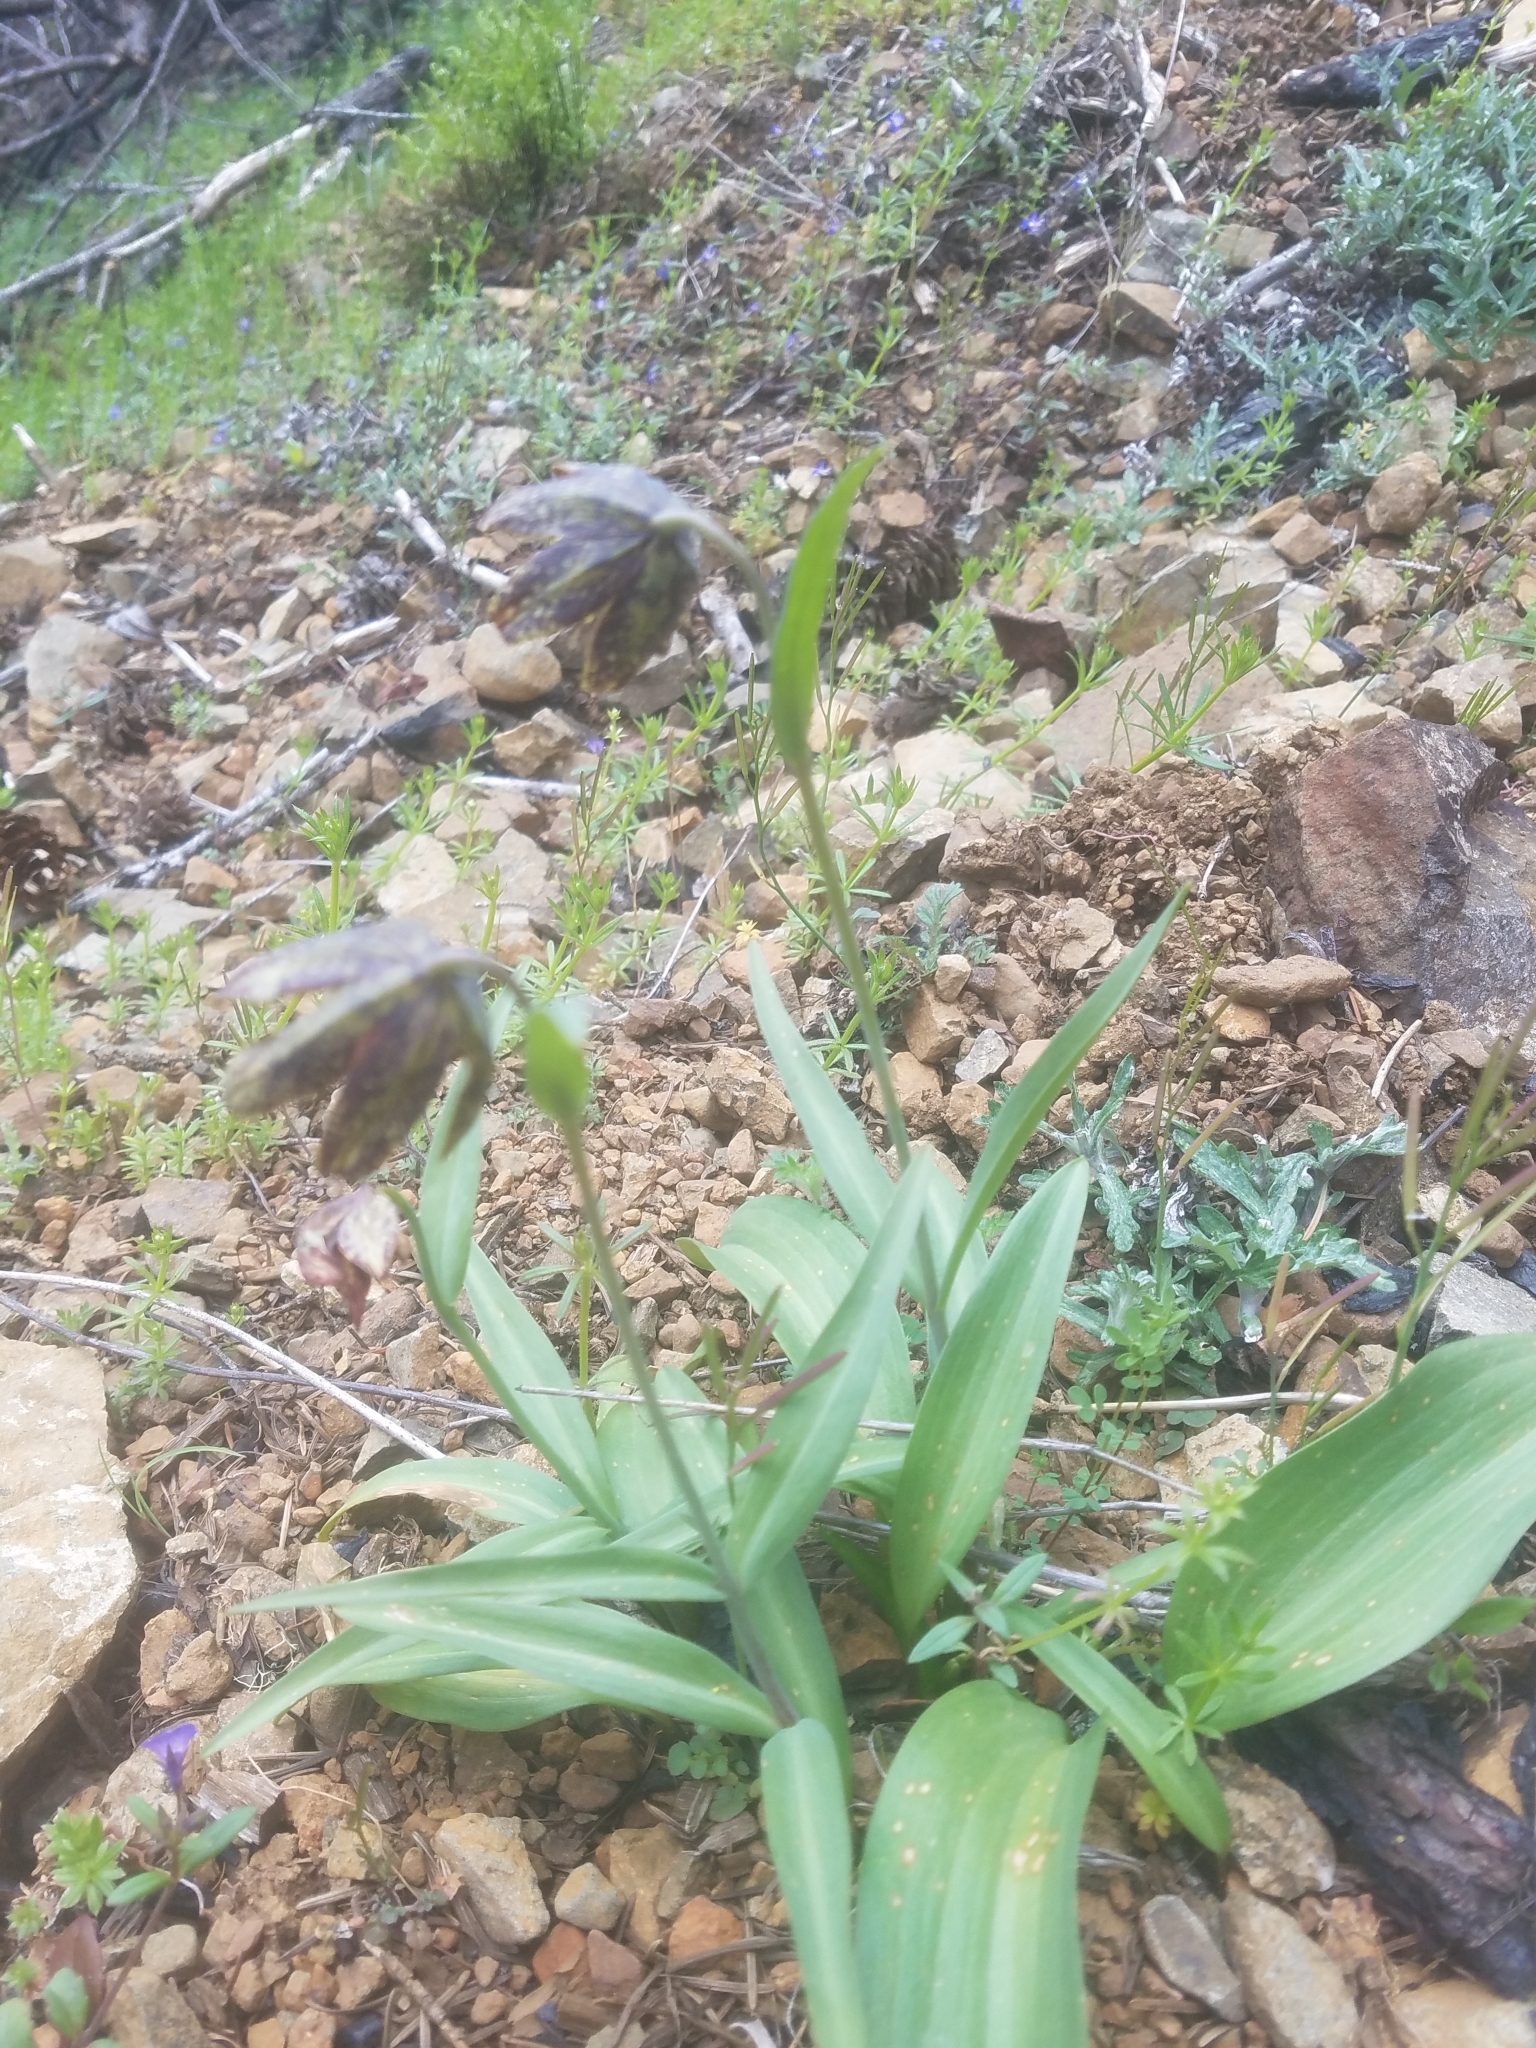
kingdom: Plantae
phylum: Tracheophyta
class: Liliopsida
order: Liliales
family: Liliaceae
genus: Fritillaria
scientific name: Fritillaria affinis
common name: Ojai fritillary
